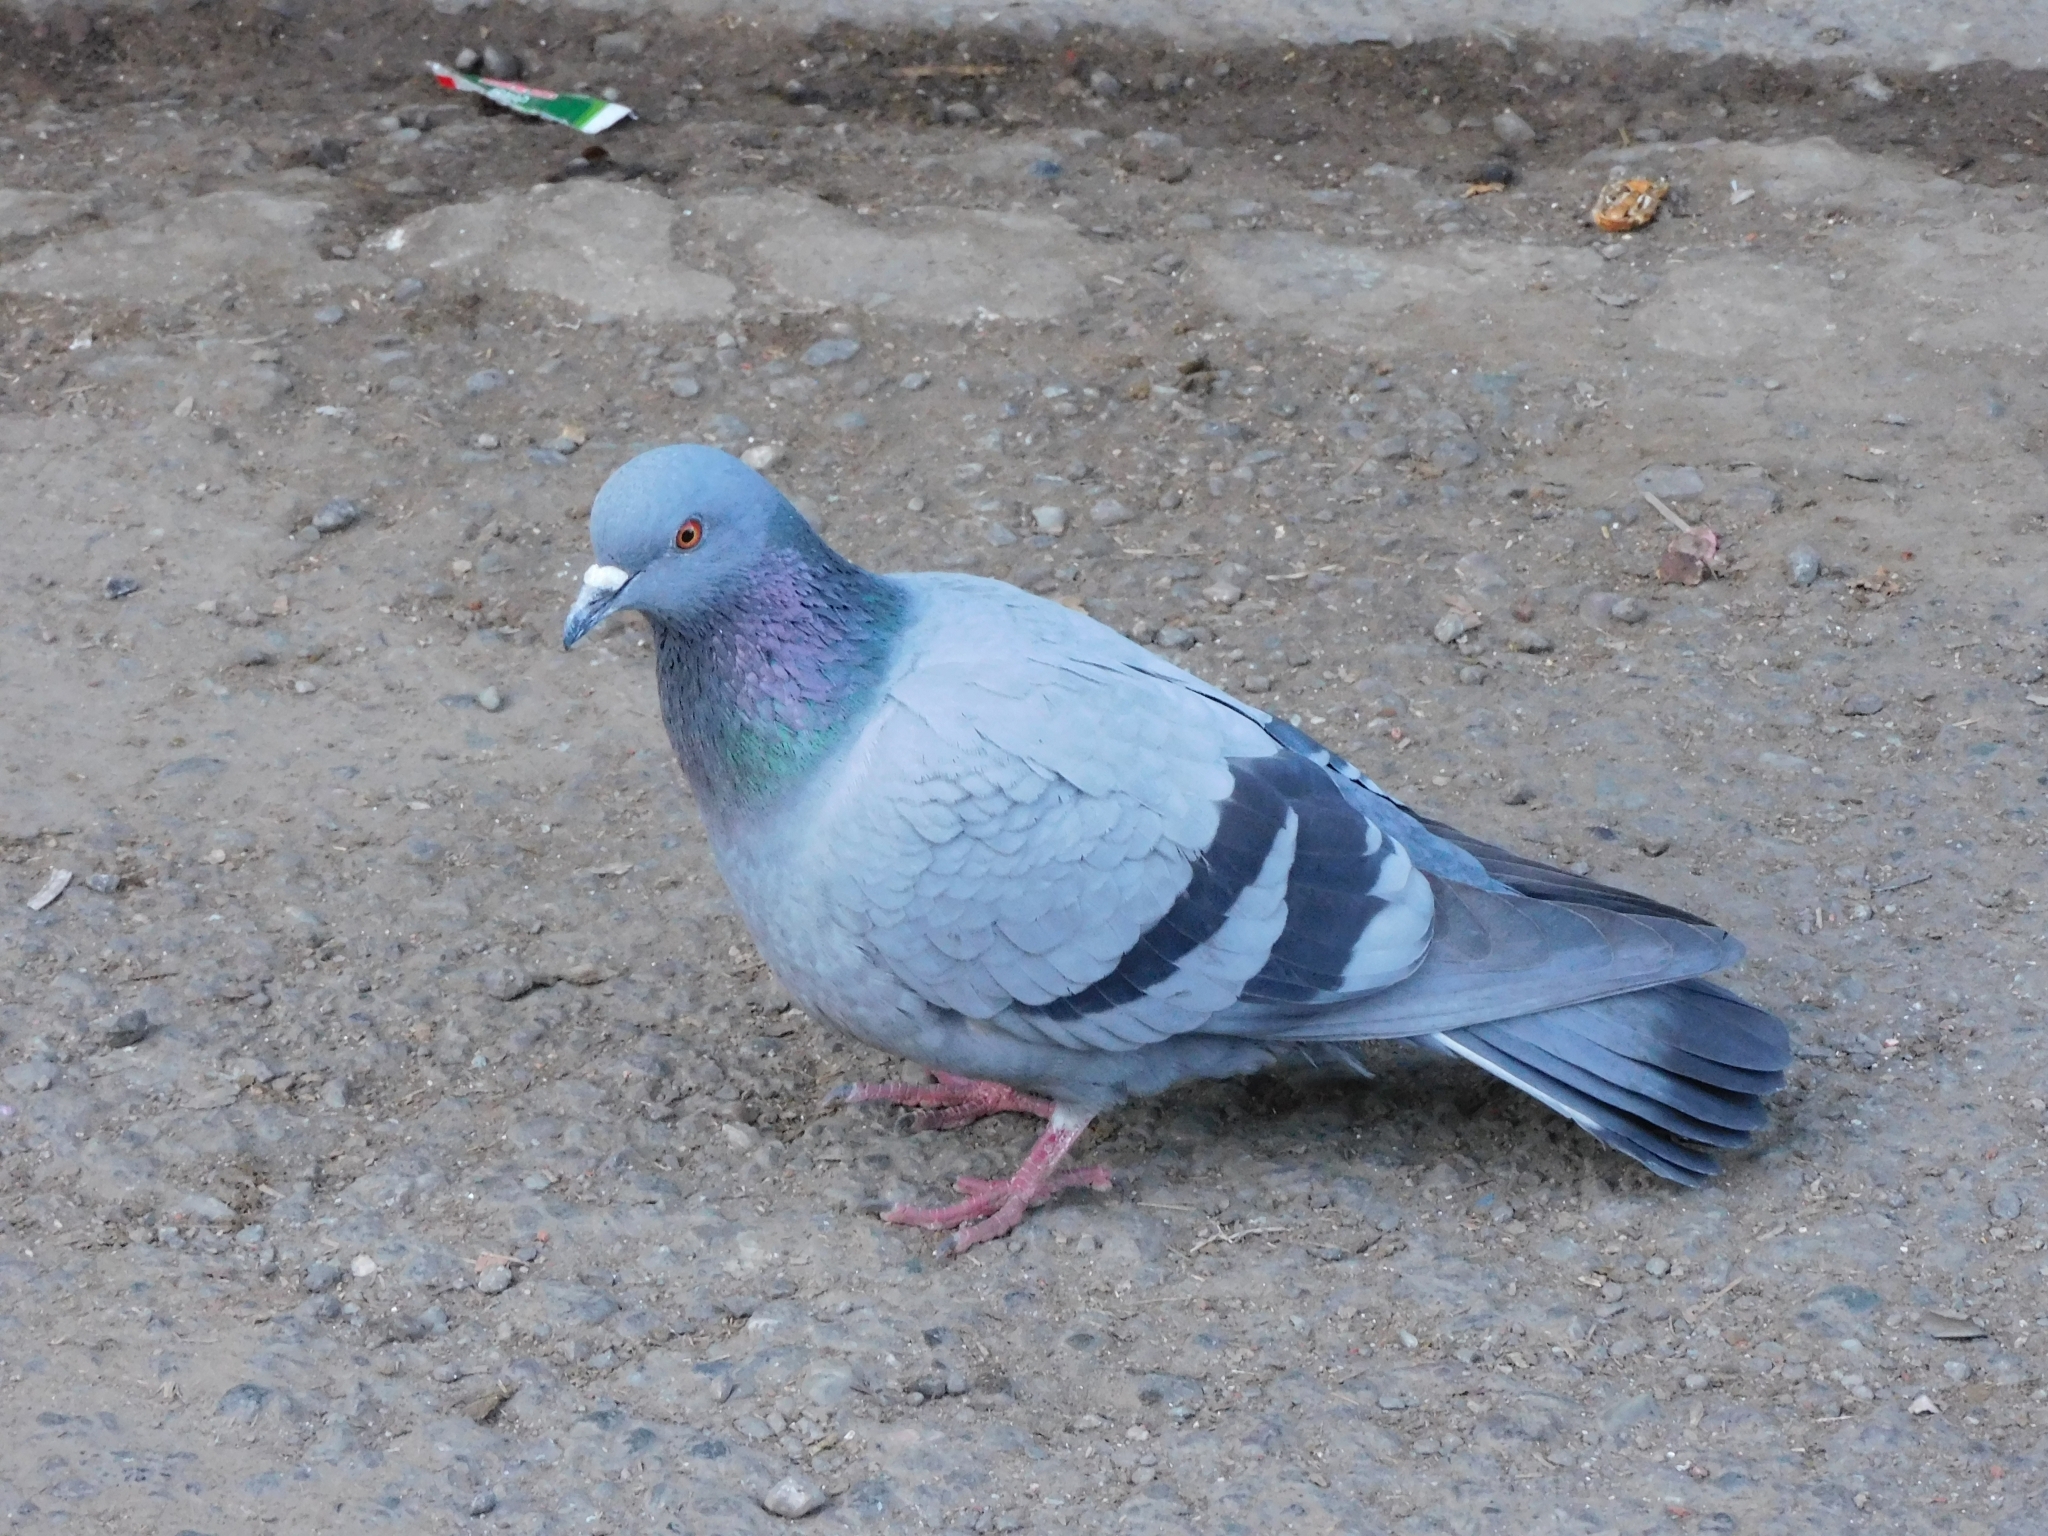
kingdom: Animalia
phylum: Chordata
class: Aves
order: Columbiformes
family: Columbidae
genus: Columba
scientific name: Columba livia
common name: Rock pigeon
